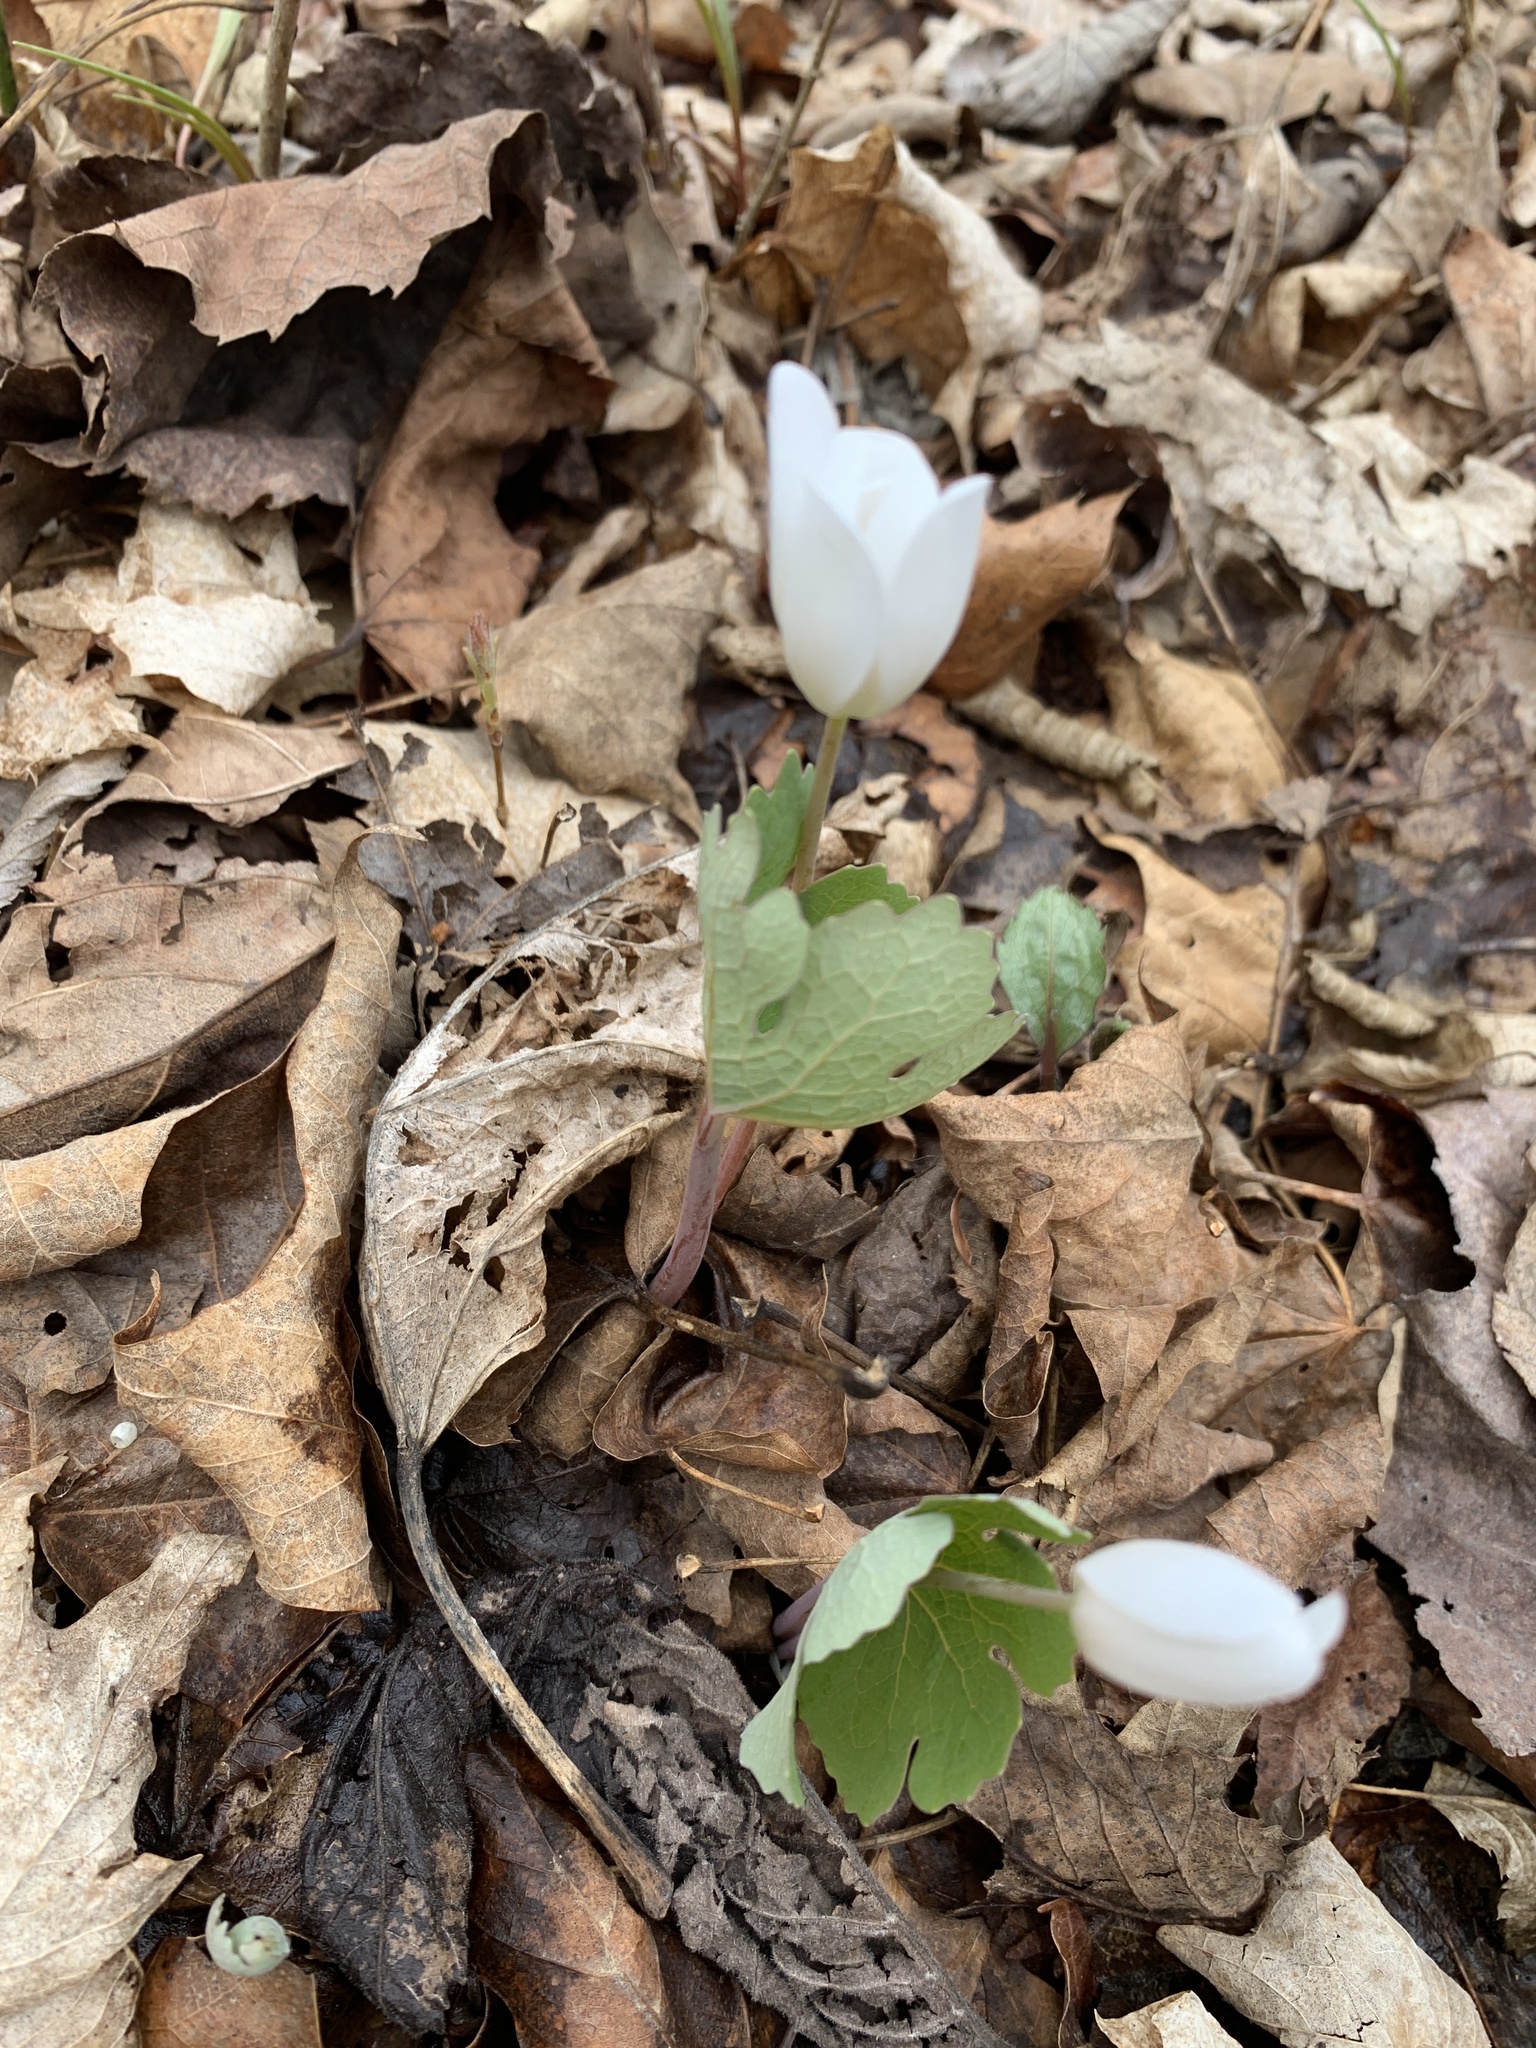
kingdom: Plantae
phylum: Tracheophyta
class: Magnoliopsida
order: Ranunculales
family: Papaveraceae
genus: Sanguinaria
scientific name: Sanguinaria canadensis
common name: Bloodroot
